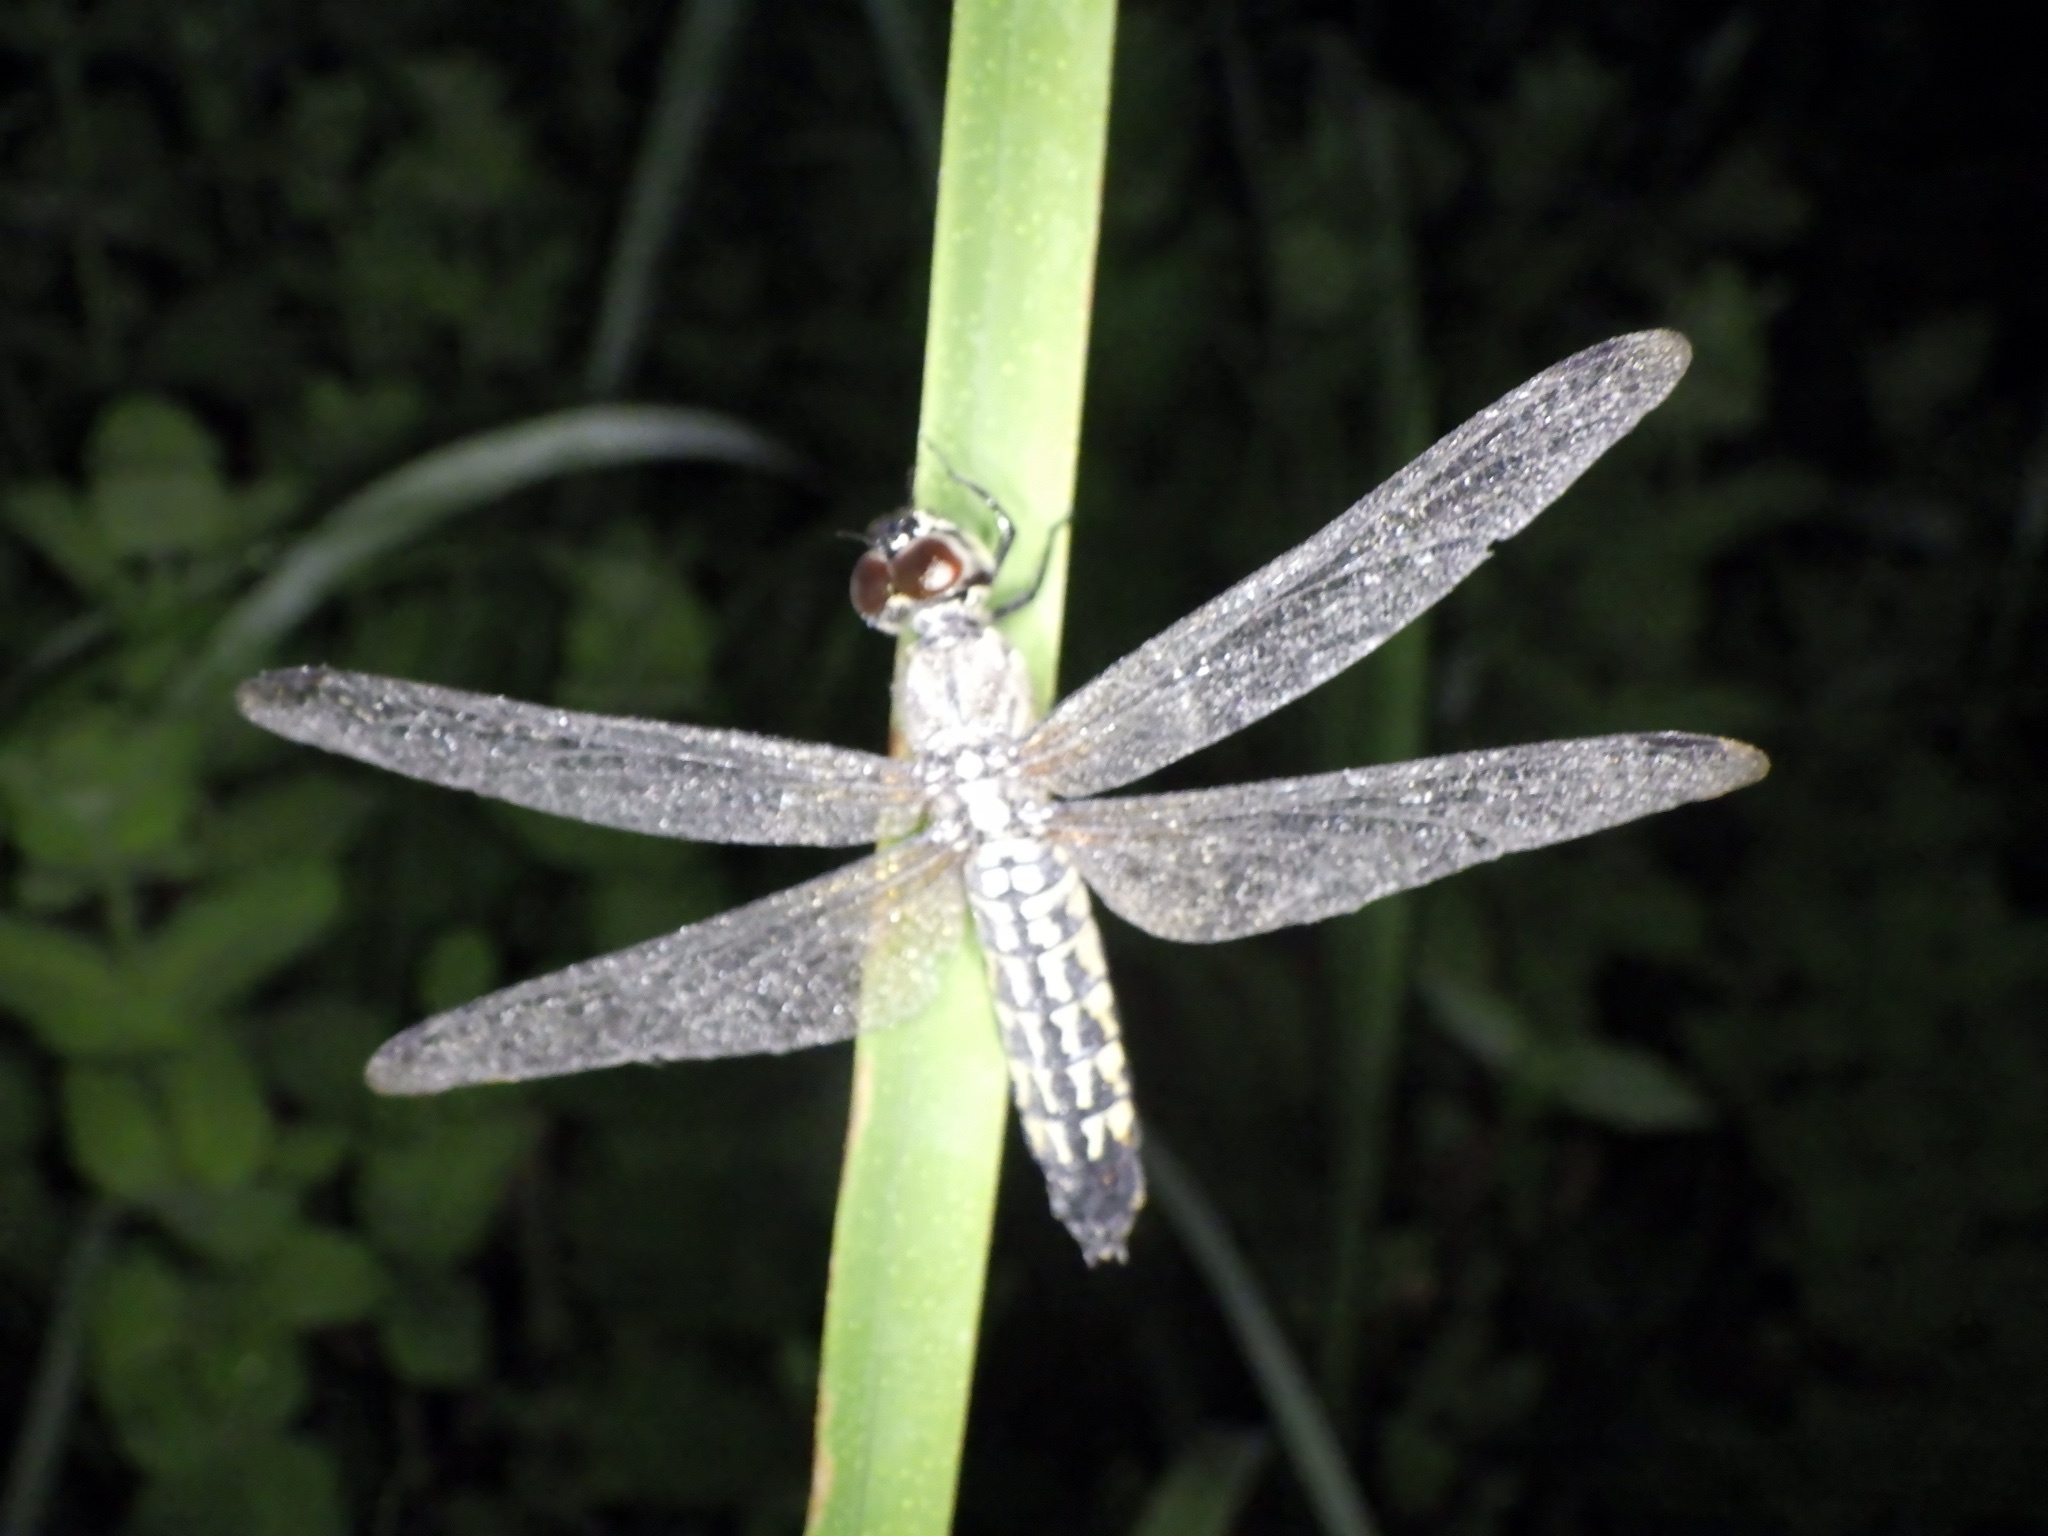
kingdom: Animalia
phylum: Arthropoda
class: Insecta
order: Odonata
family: Libellulidae
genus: Lyriothemis
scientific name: Lyriothemis pachygastra
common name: Wide-bellied skimmer
